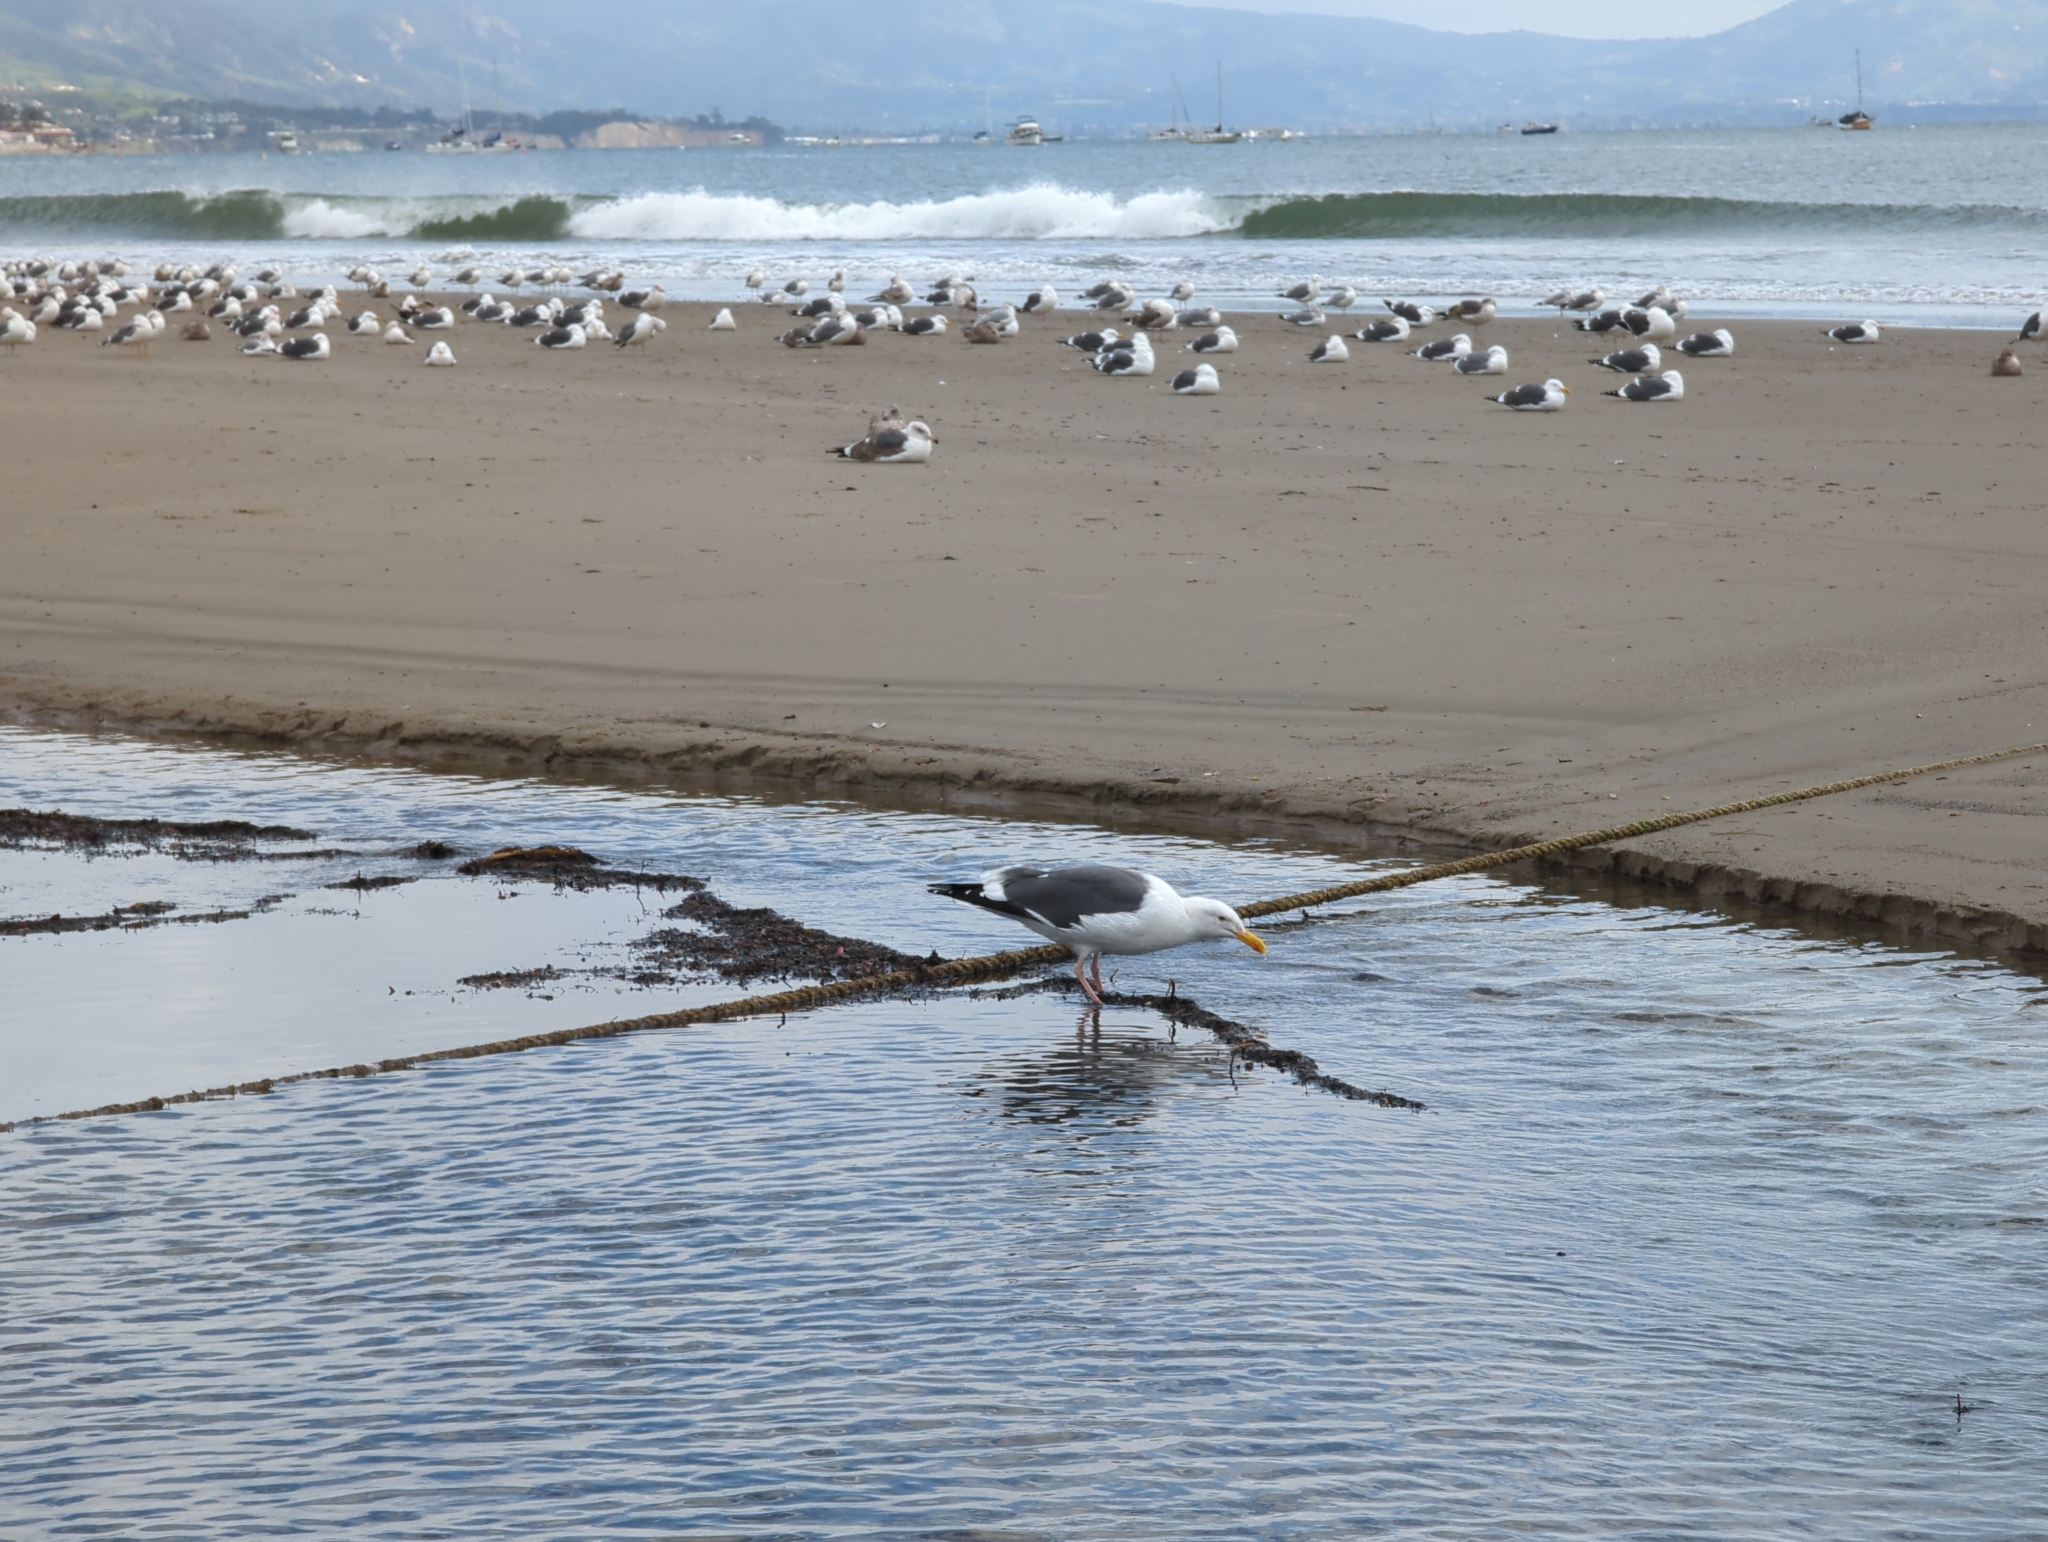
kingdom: Animalia
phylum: Chordata
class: Aves
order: Charadriiformes
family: Laridae
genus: Larus
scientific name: Larus occidentalis
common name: Western gull
